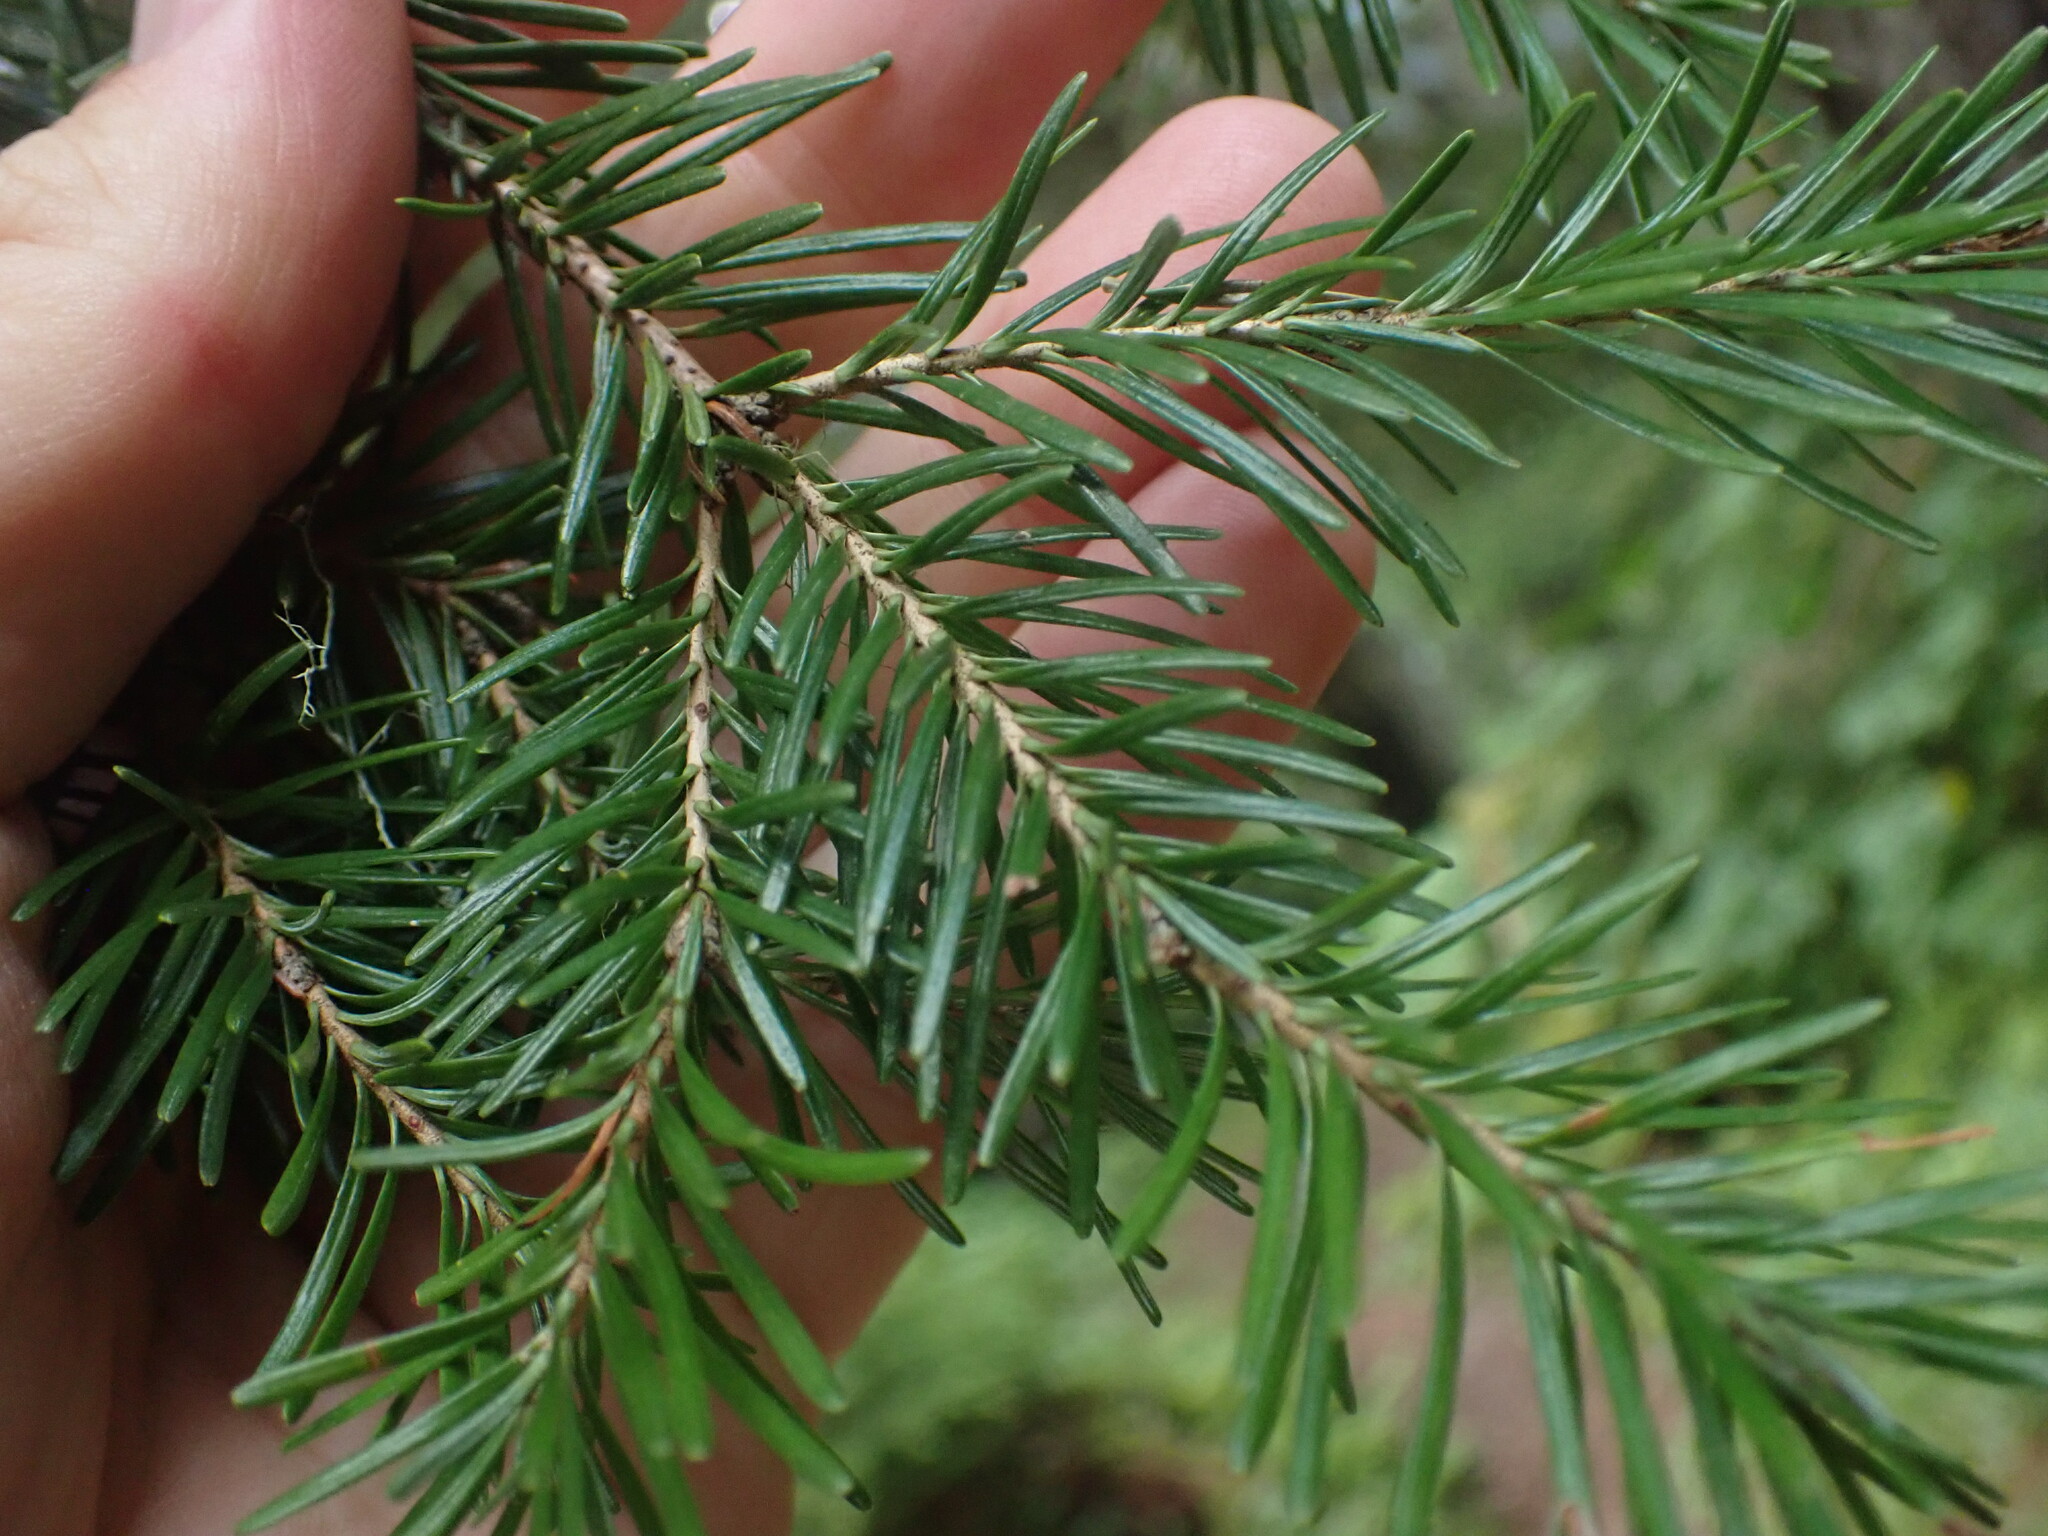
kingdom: Plantae
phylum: Tracheophyta
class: Pinopsida
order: Pinales
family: Pinaceae
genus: Abies
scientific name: Abies lasiocarpa
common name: Subalpine fir
